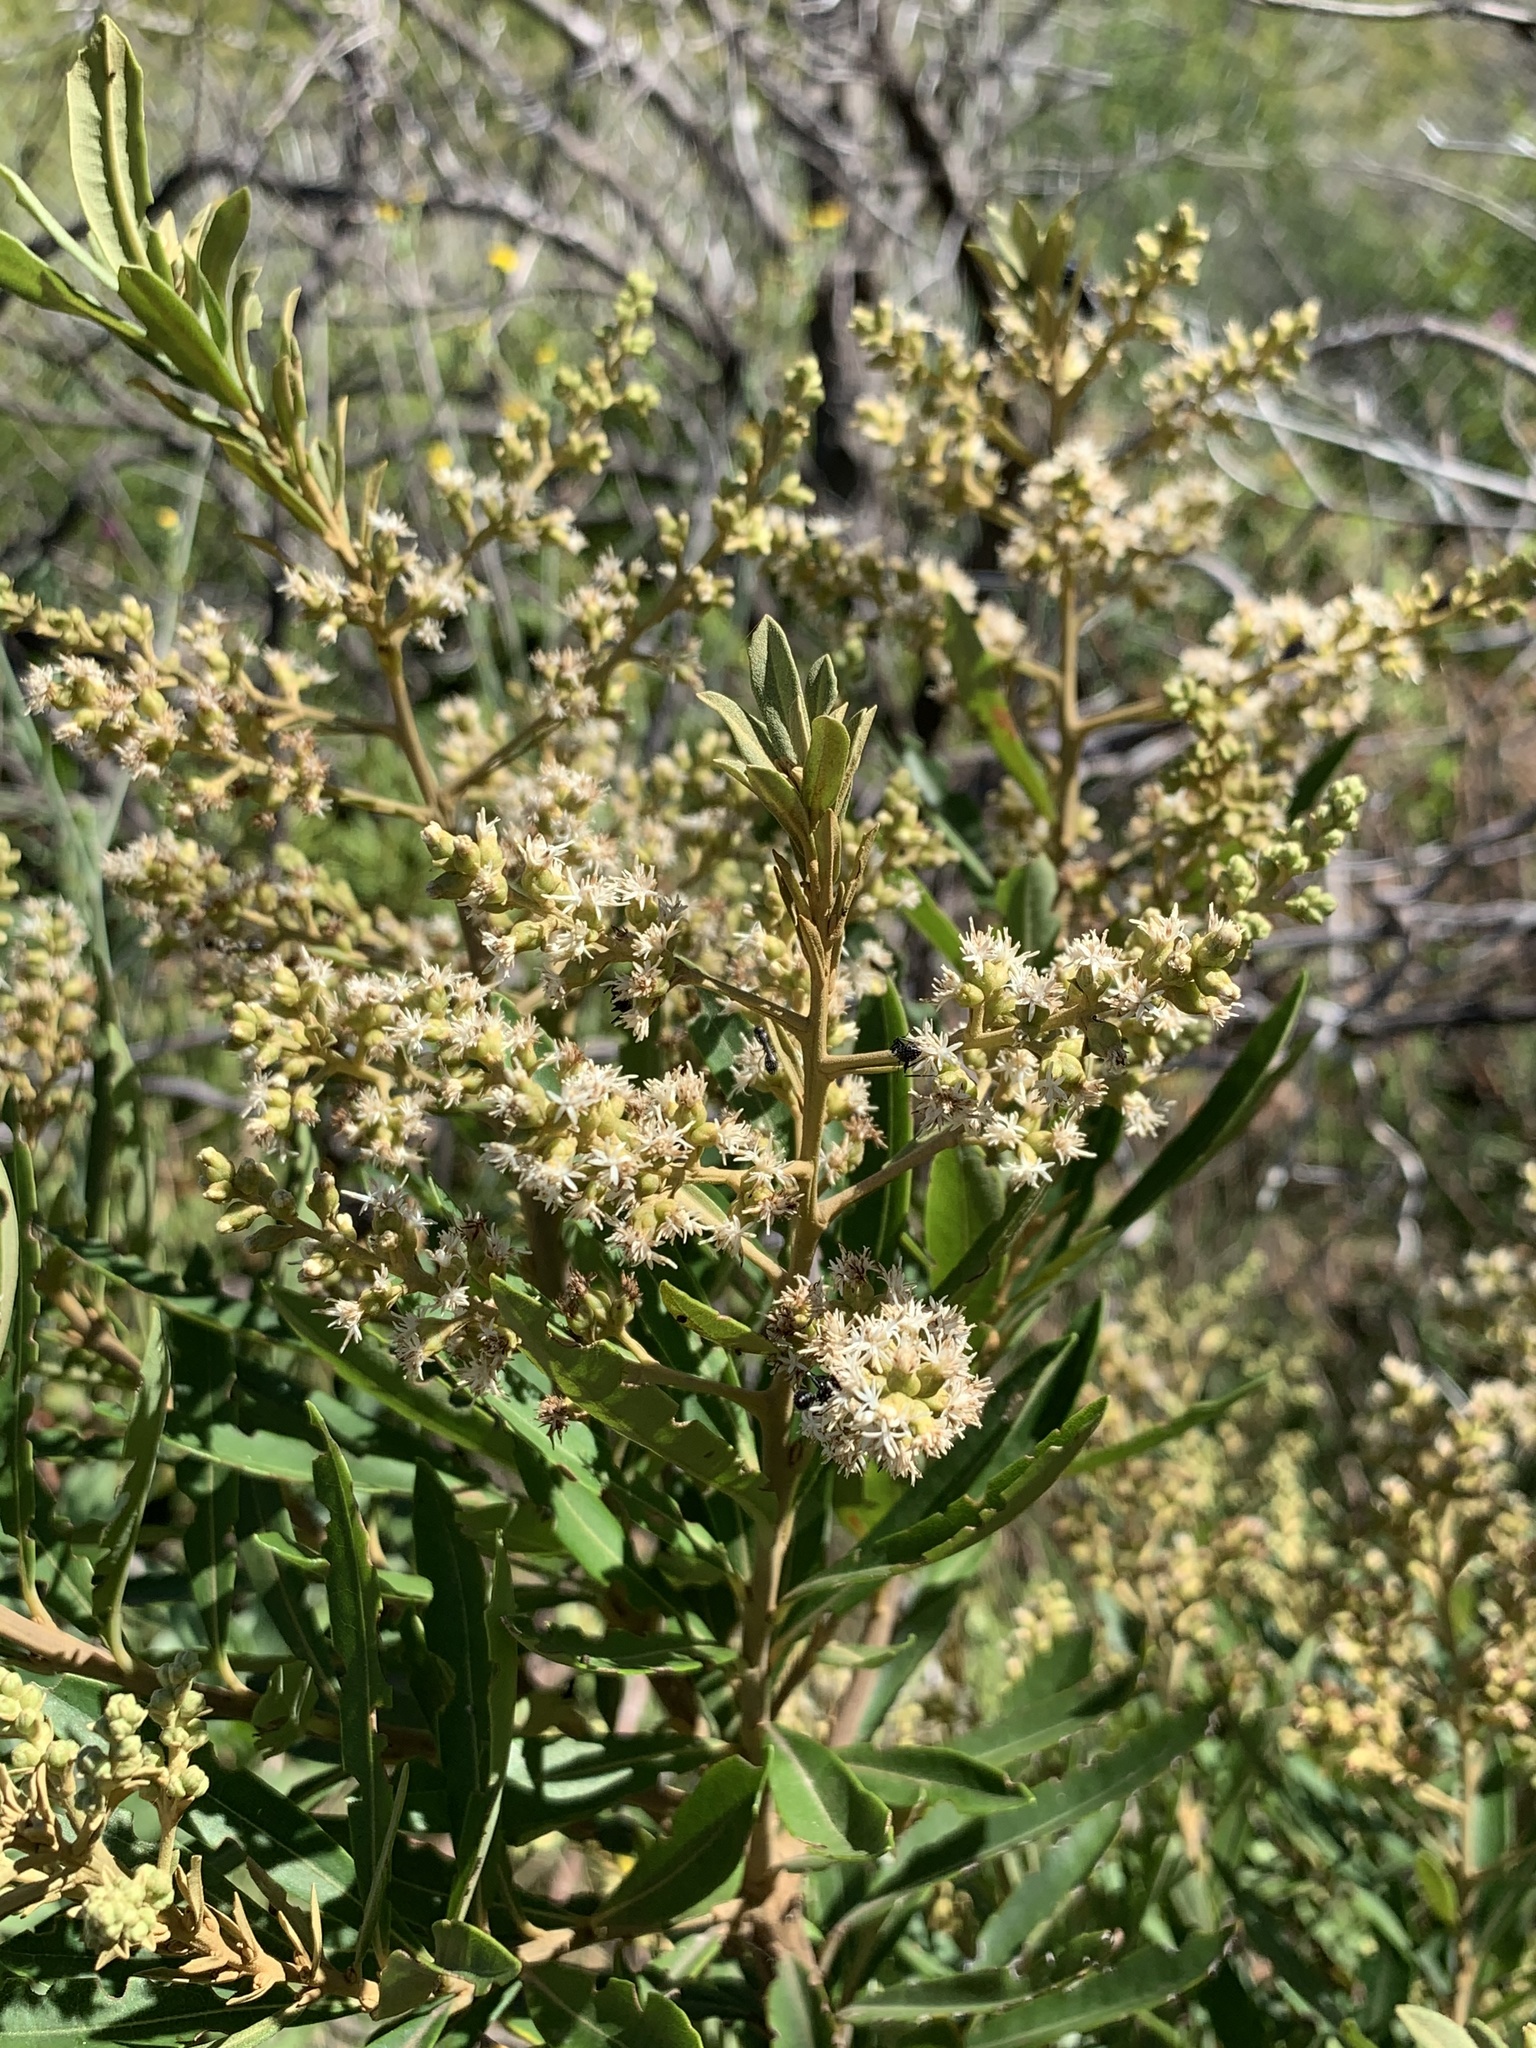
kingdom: Plantae
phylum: Tracheophyta
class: Magnoliopsida
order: Asterales
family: Asteraceae
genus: Brachylaena
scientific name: Brachylaena neriifolia
